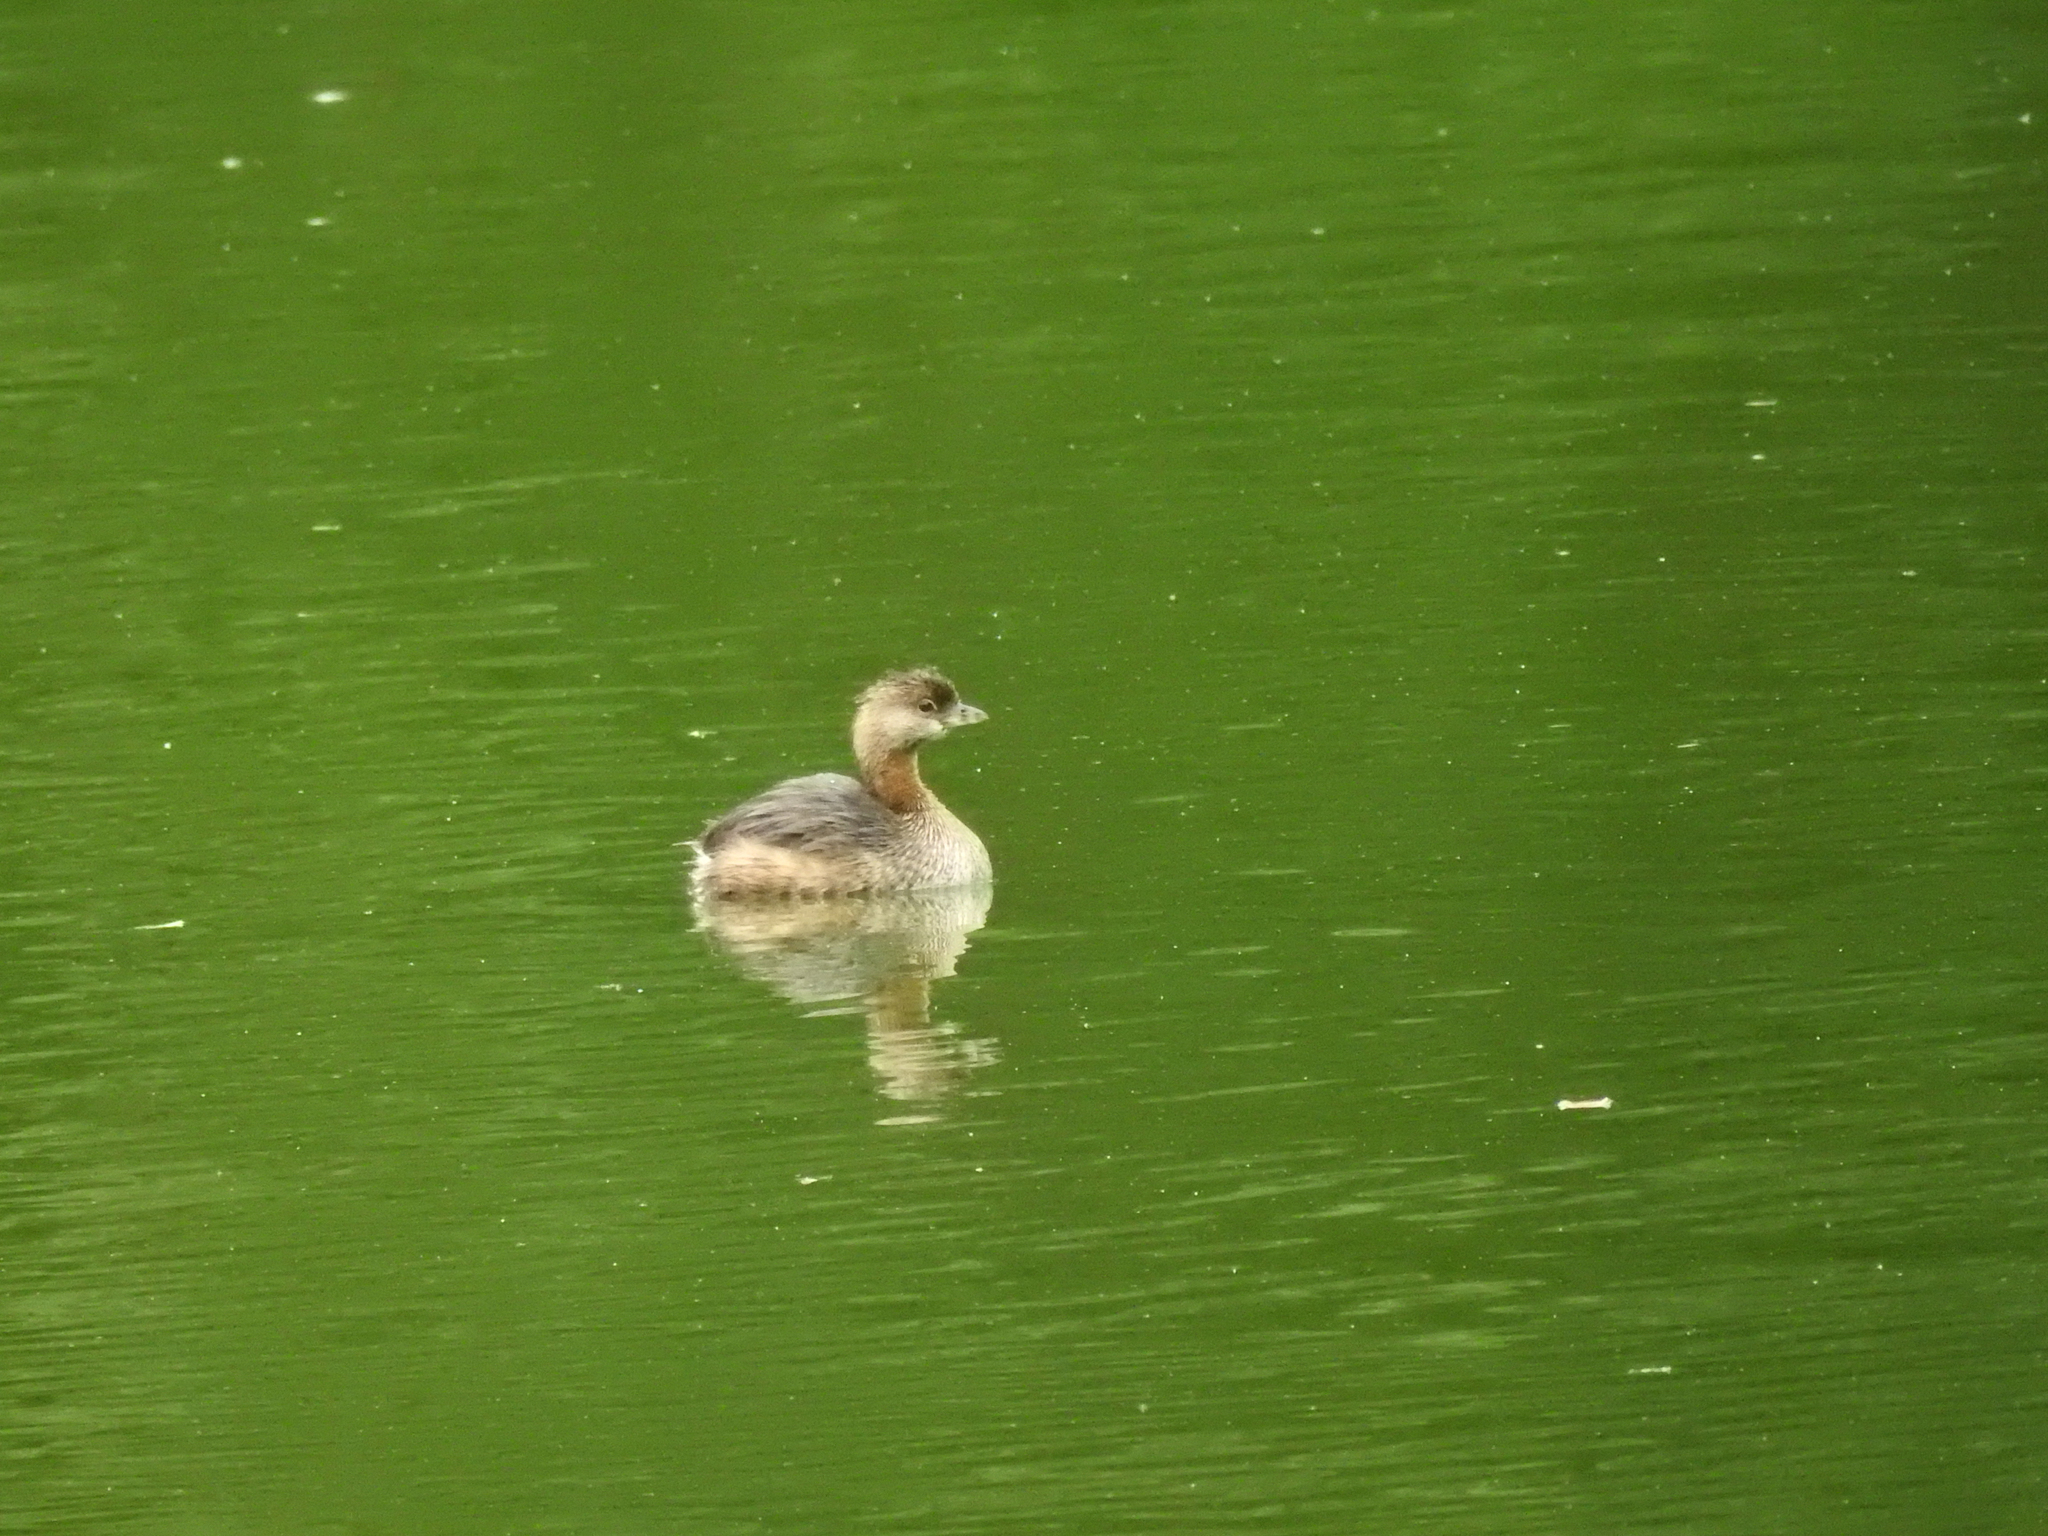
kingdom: Animalia
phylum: Chordata
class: Aves
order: Podicipediformes
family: Podicipedidae
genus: Podilymbus
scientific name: Podilymbus podiceps
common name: Pied-billed grebe
